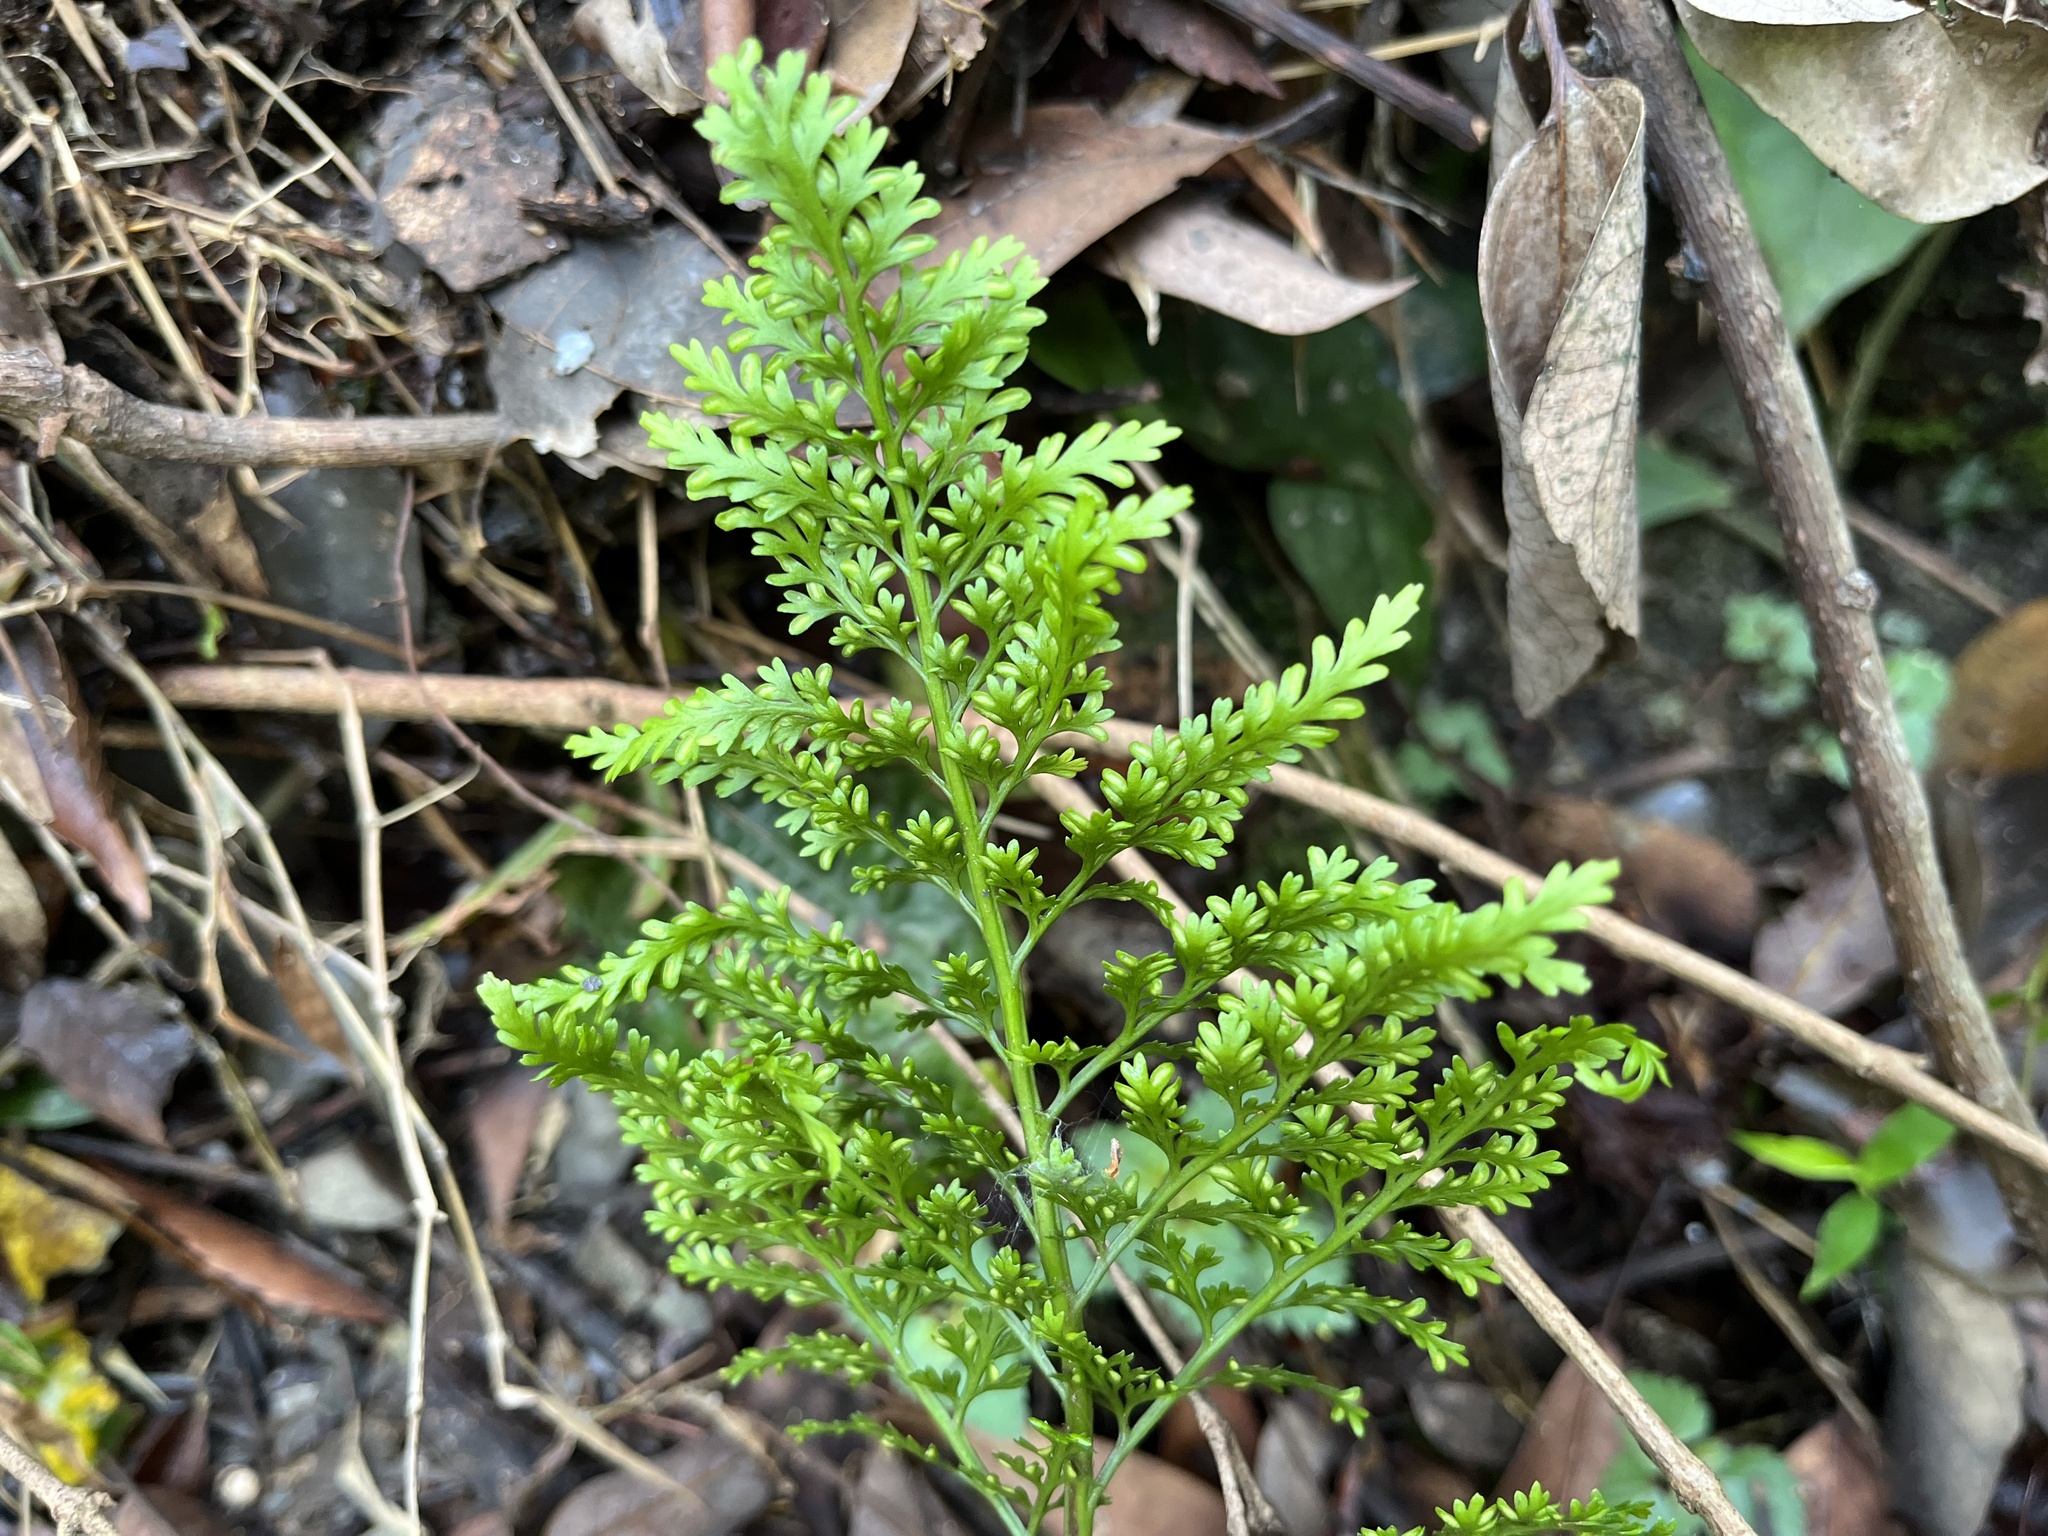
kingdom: Plantae
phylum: Tracheophyta
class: Polypodiopsida
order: Polypodiales
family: Aspleniaceae
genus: Asplenium
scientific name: Asplenium ritoense
